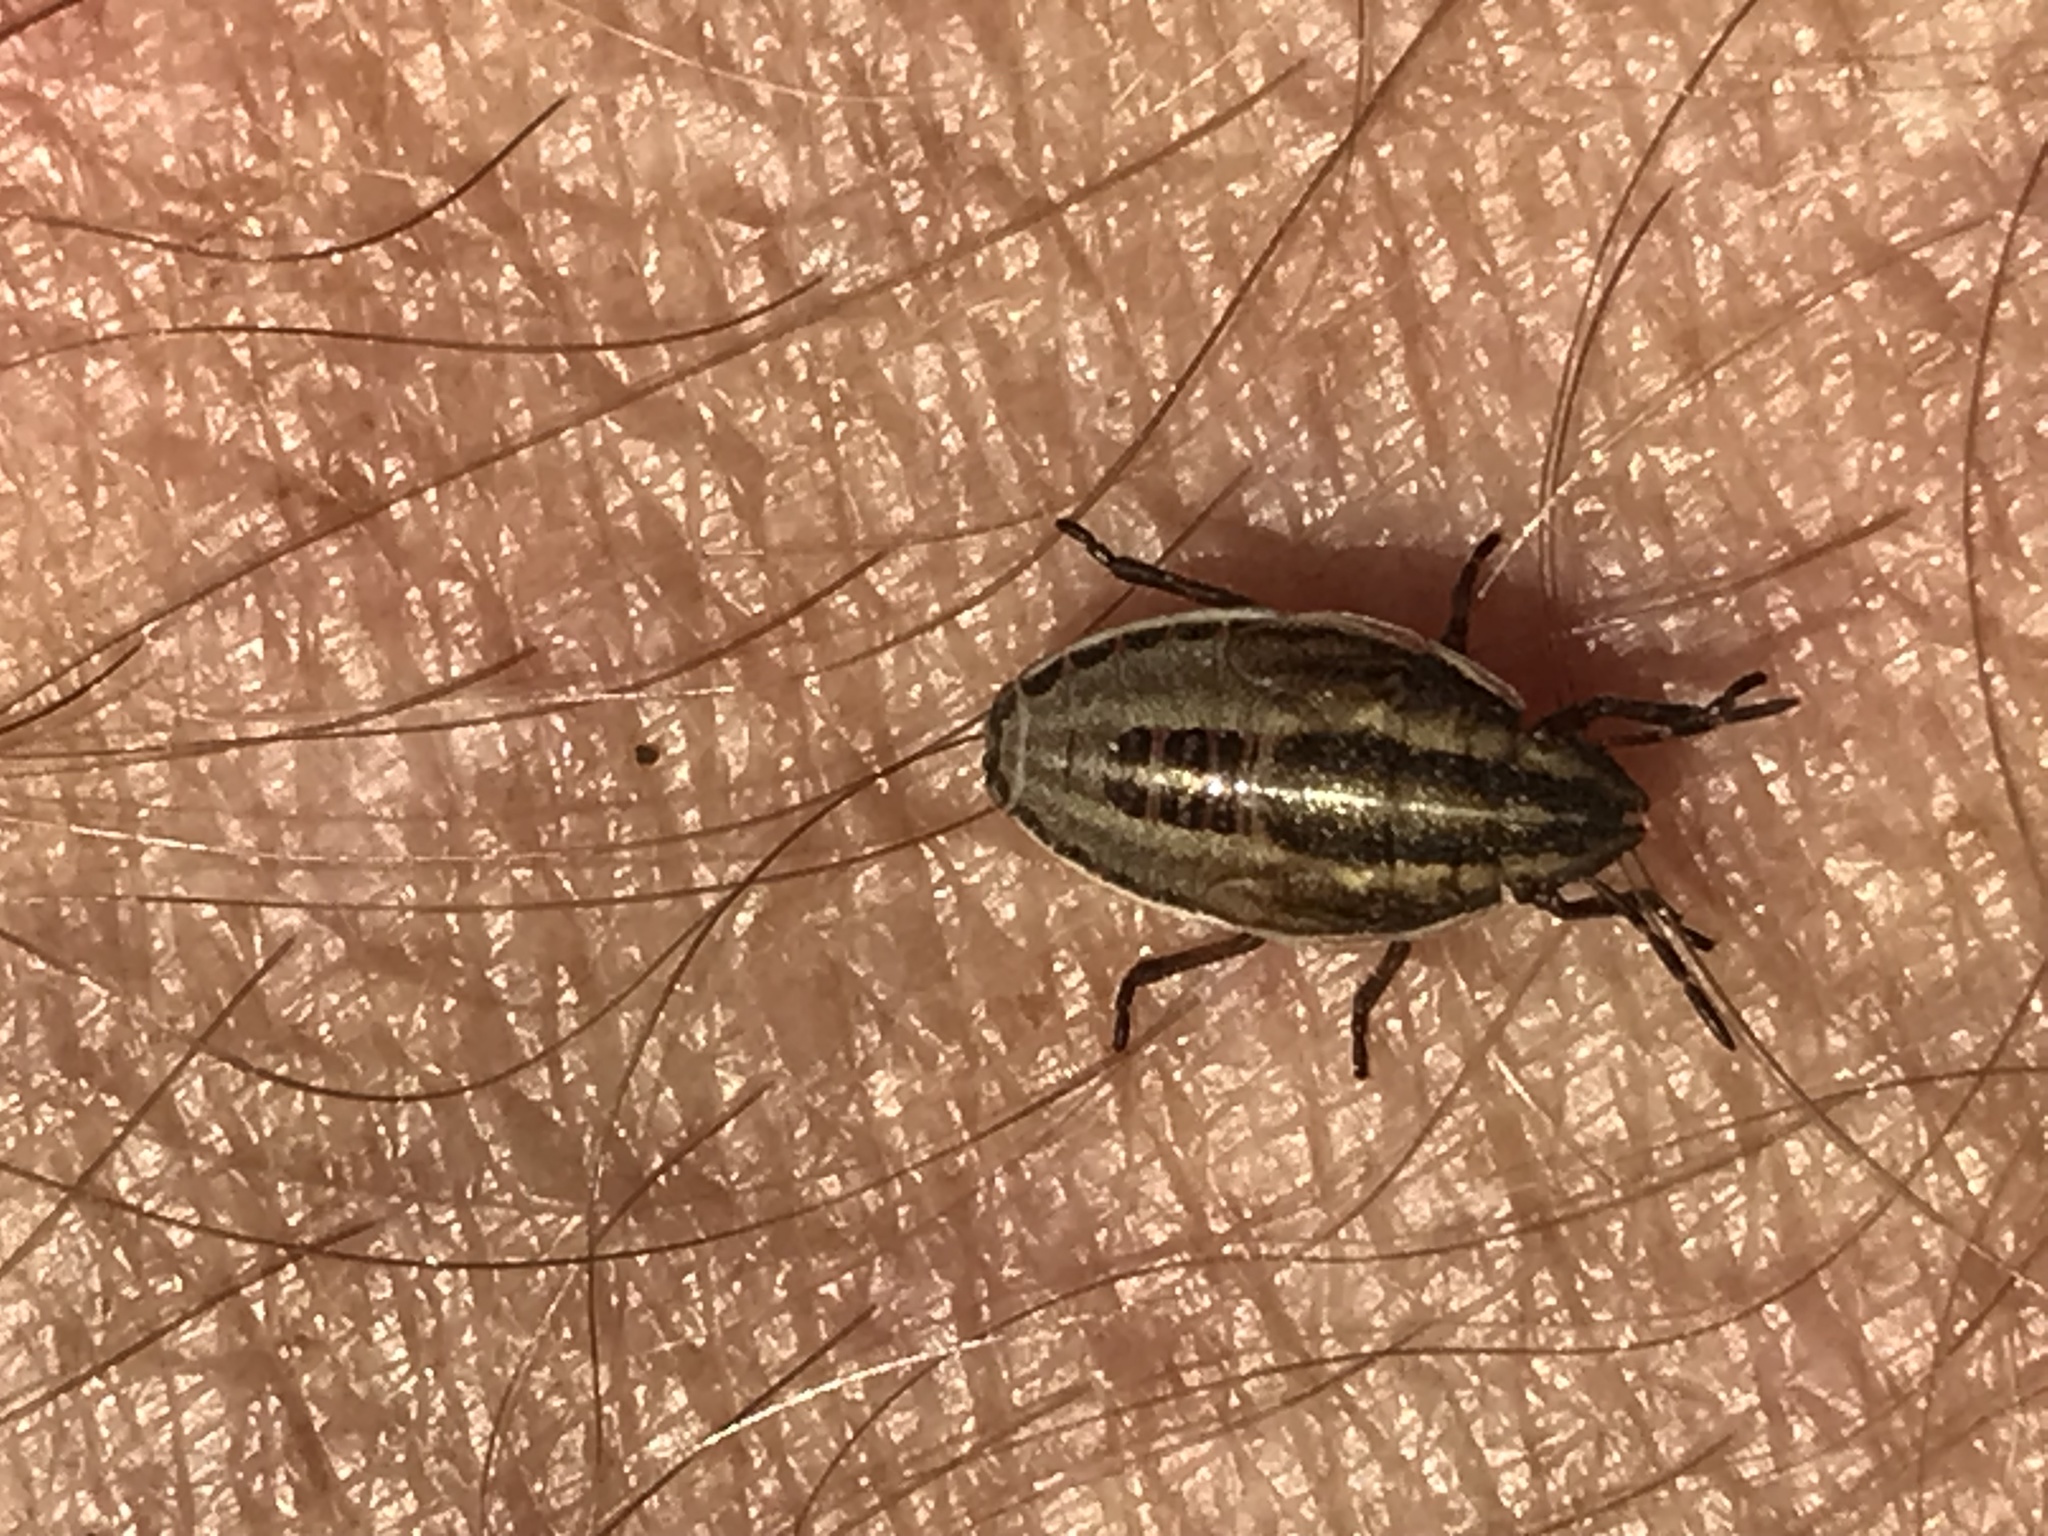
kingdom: Animalia
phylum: Arthropoda
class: Insecta
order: Hemiptera
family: Pentatomidae
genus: Aelia
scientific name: Aelia acuminata
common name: Bishop's mitre
